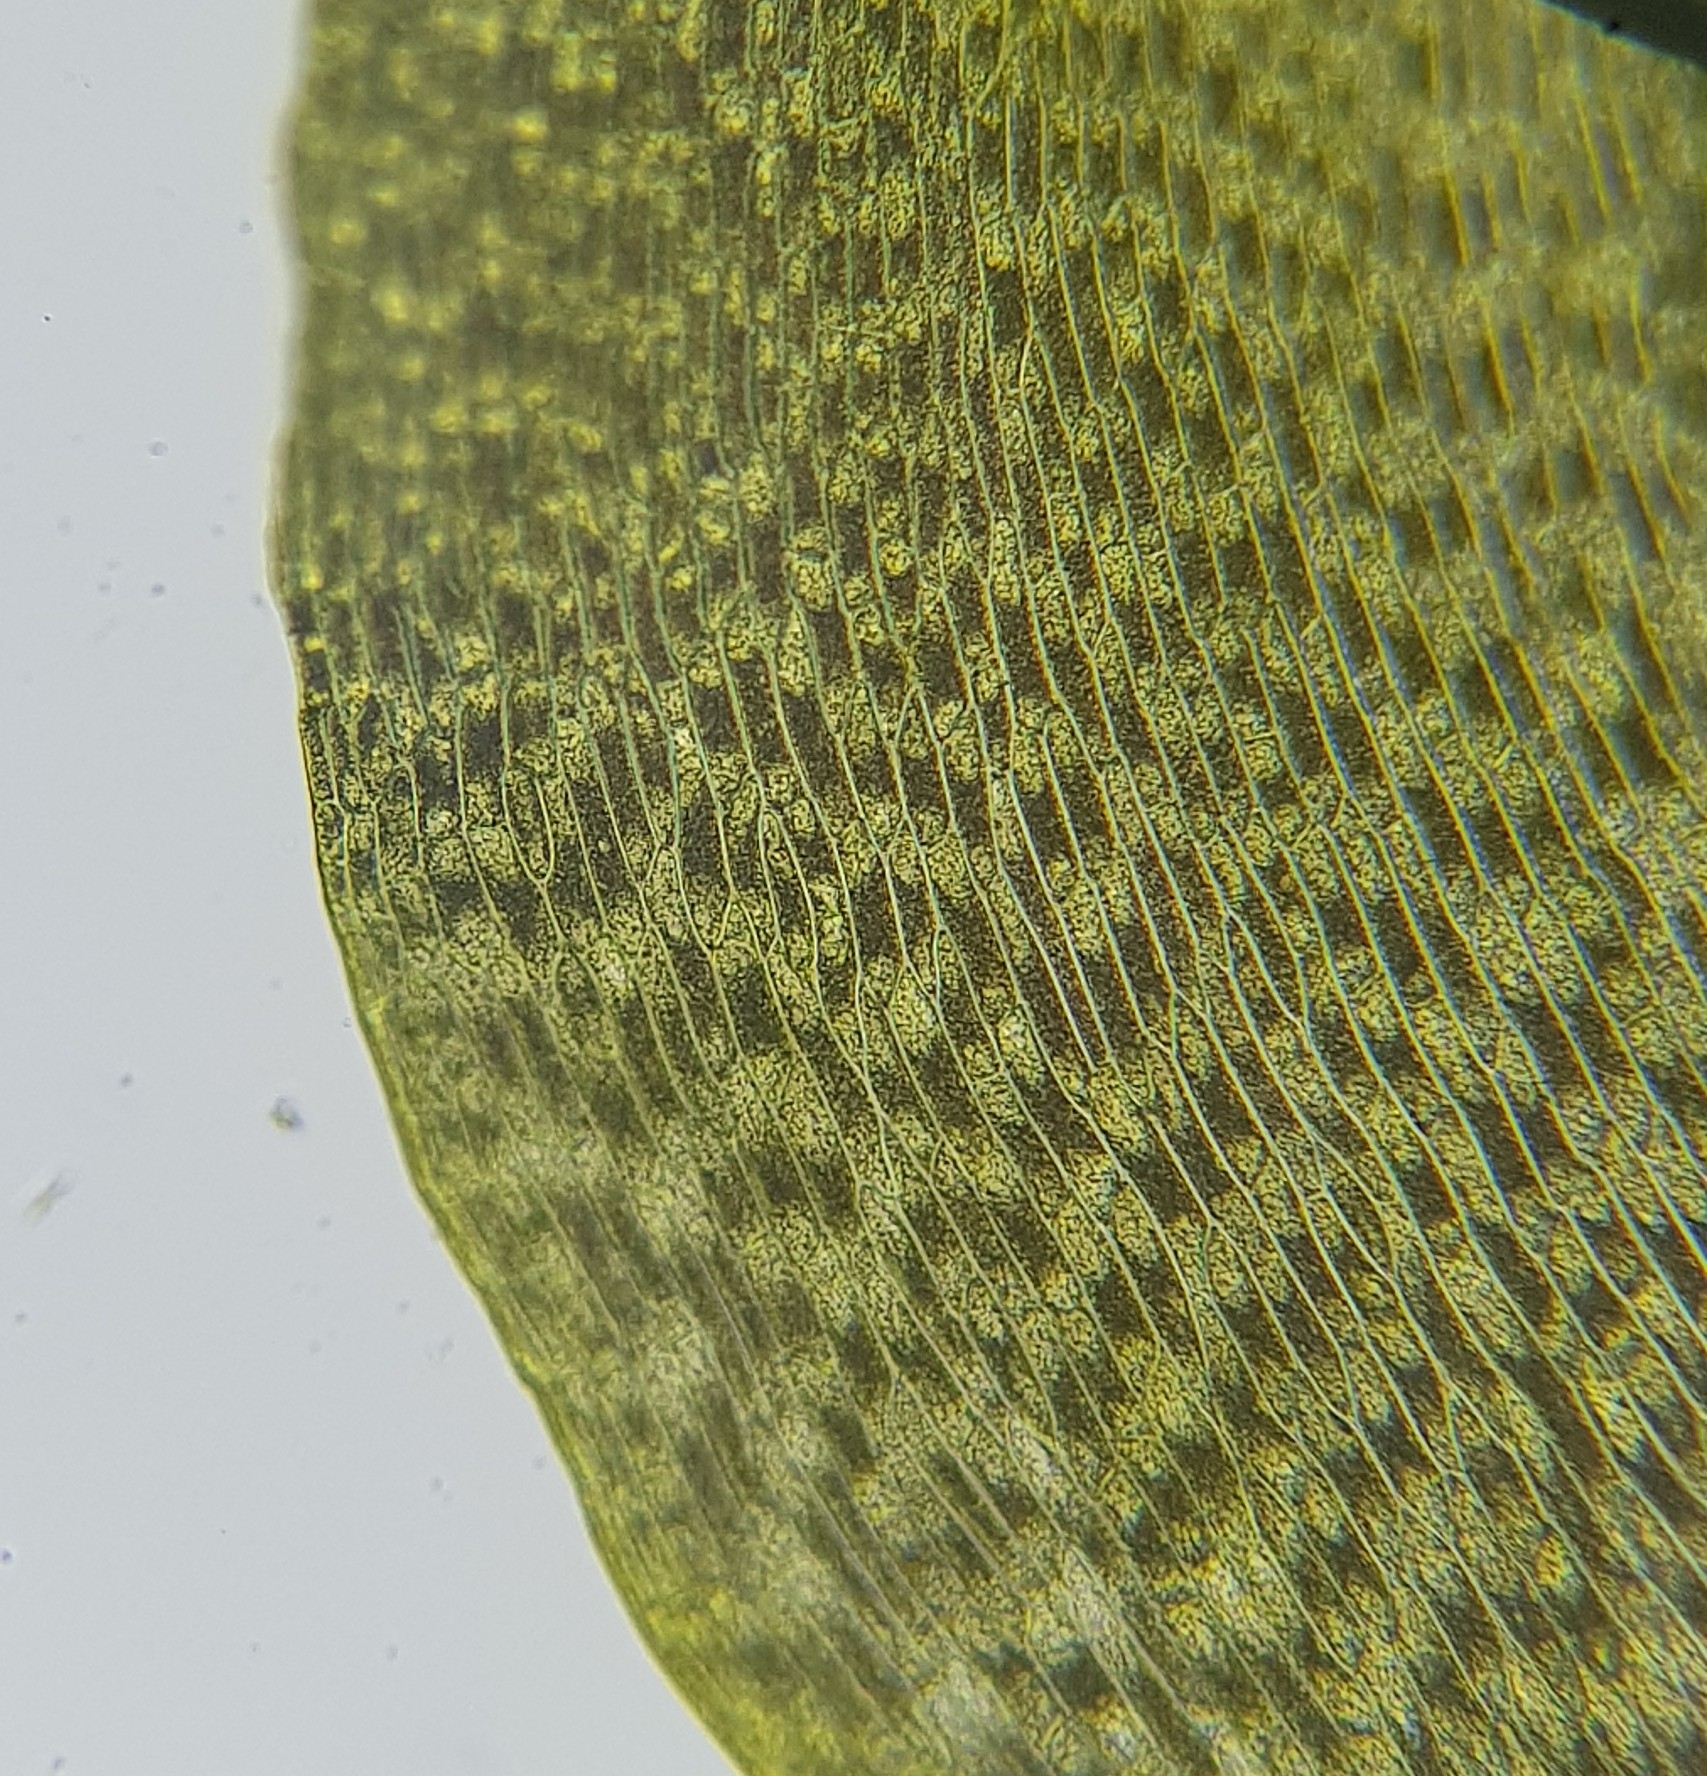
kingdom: Plantae
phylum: Bryophyta
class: Bryopsida
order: Dicranales
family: Aongstroemiaceae
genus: Diobelonella
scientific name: Diobelonella palustris
